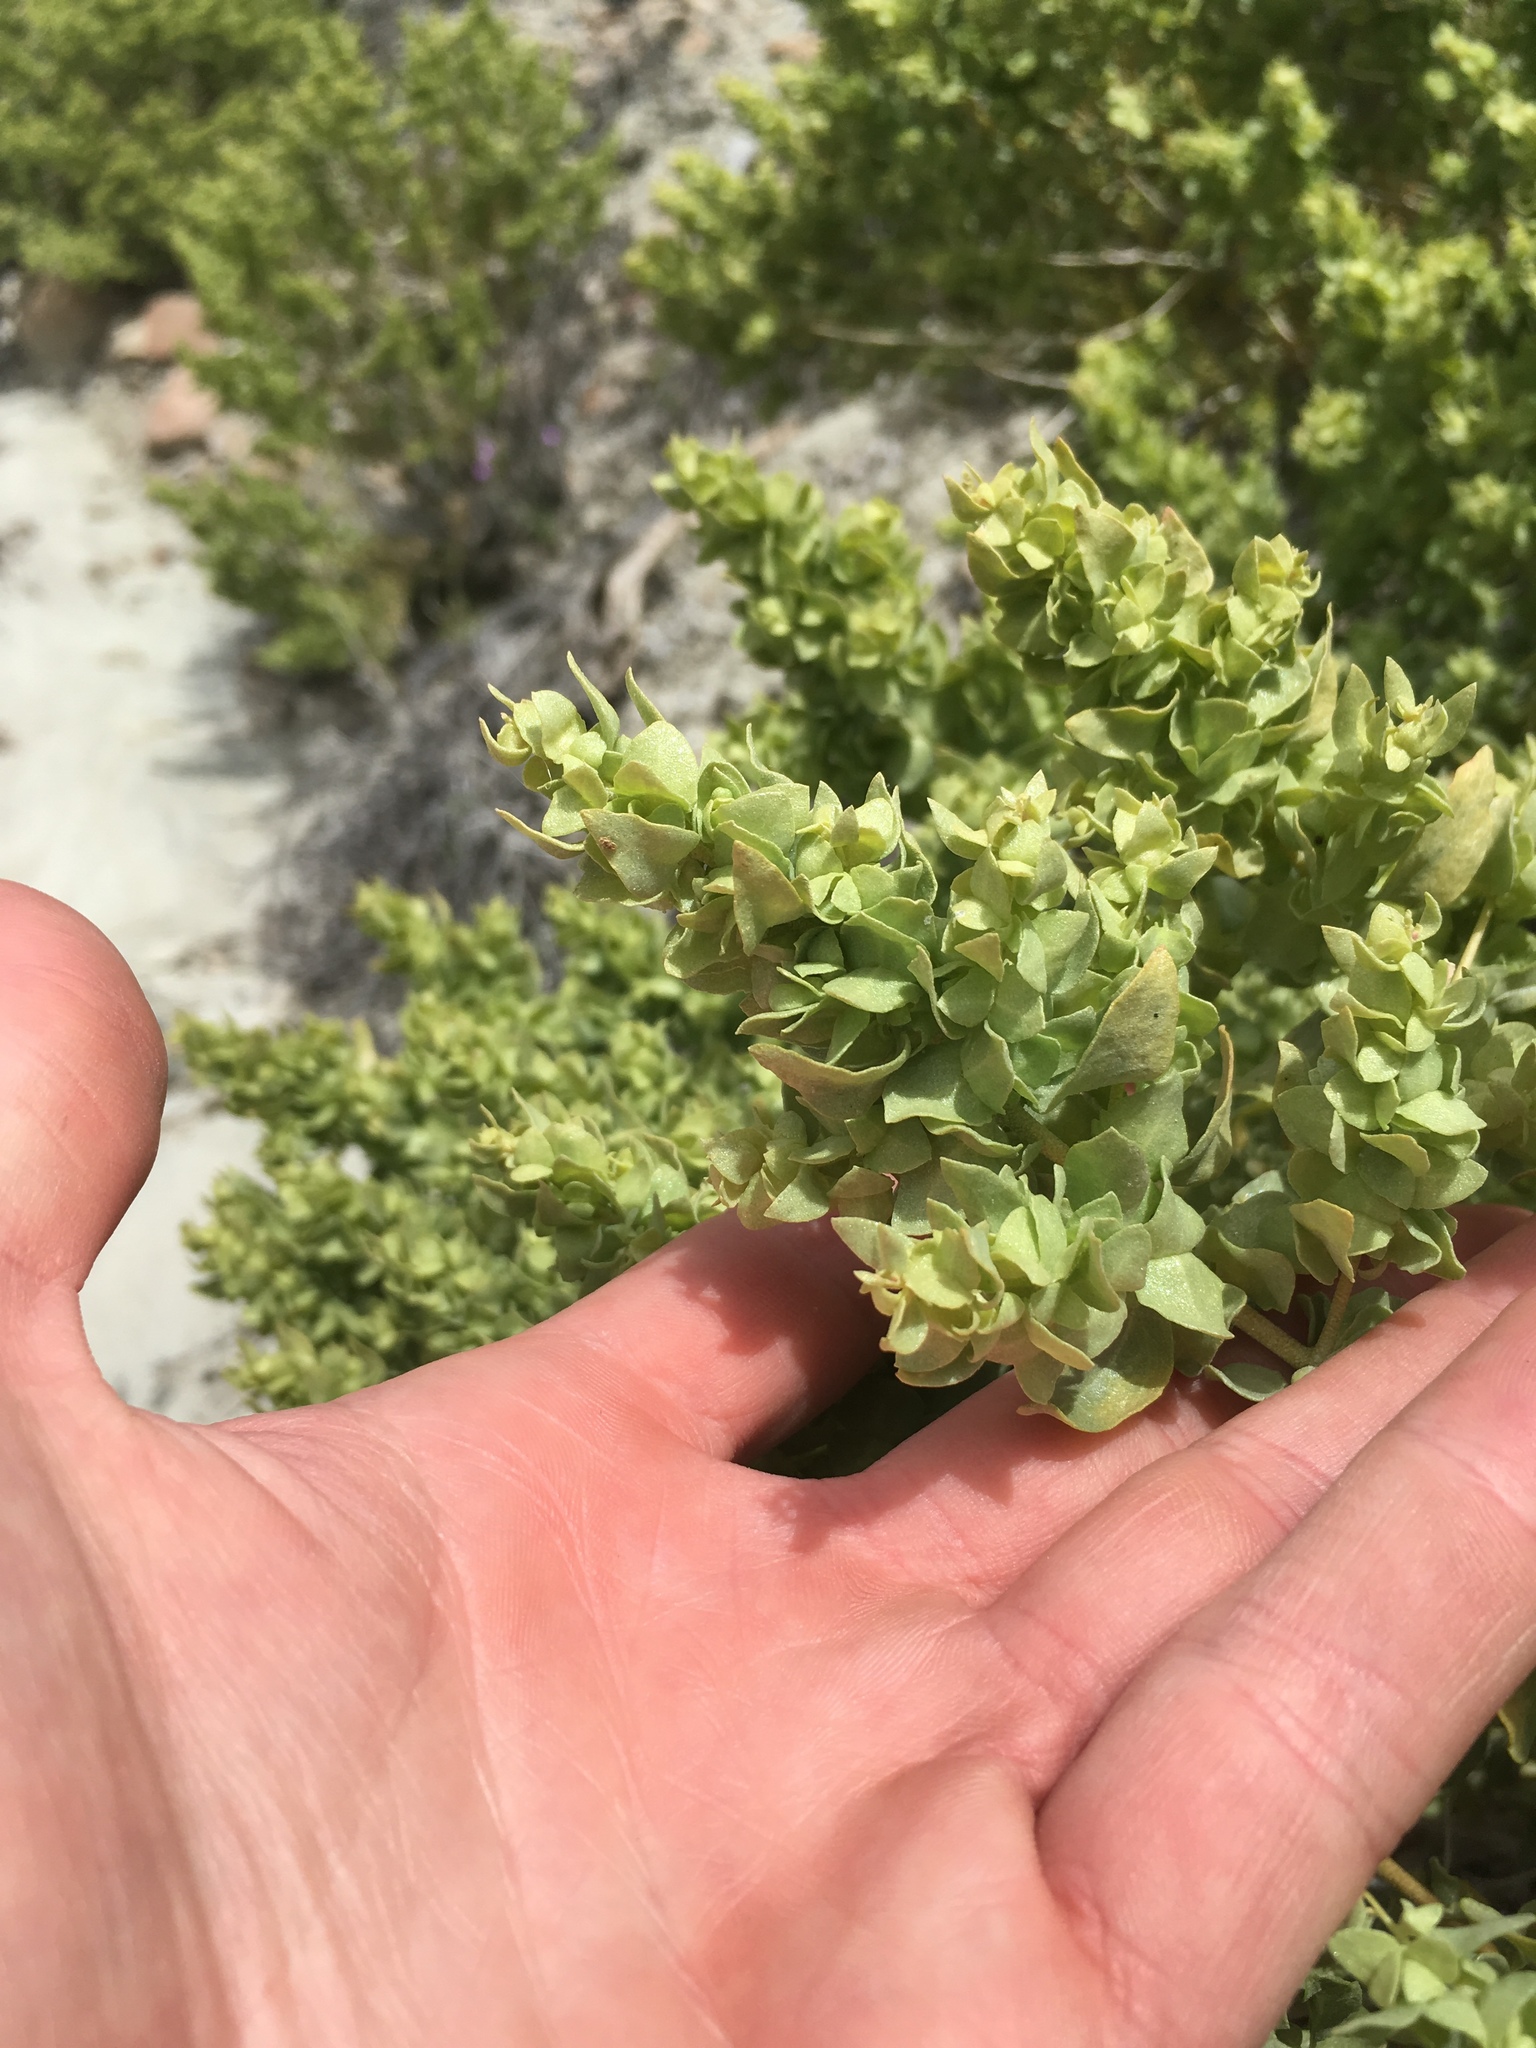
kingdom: Plantae
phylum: Tracheophyta
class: Magnoliopsida
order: Caryophyllales
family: Amaranthaceae
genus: Atriplex
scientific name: Atriplex confertifolia
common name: Shadscale
